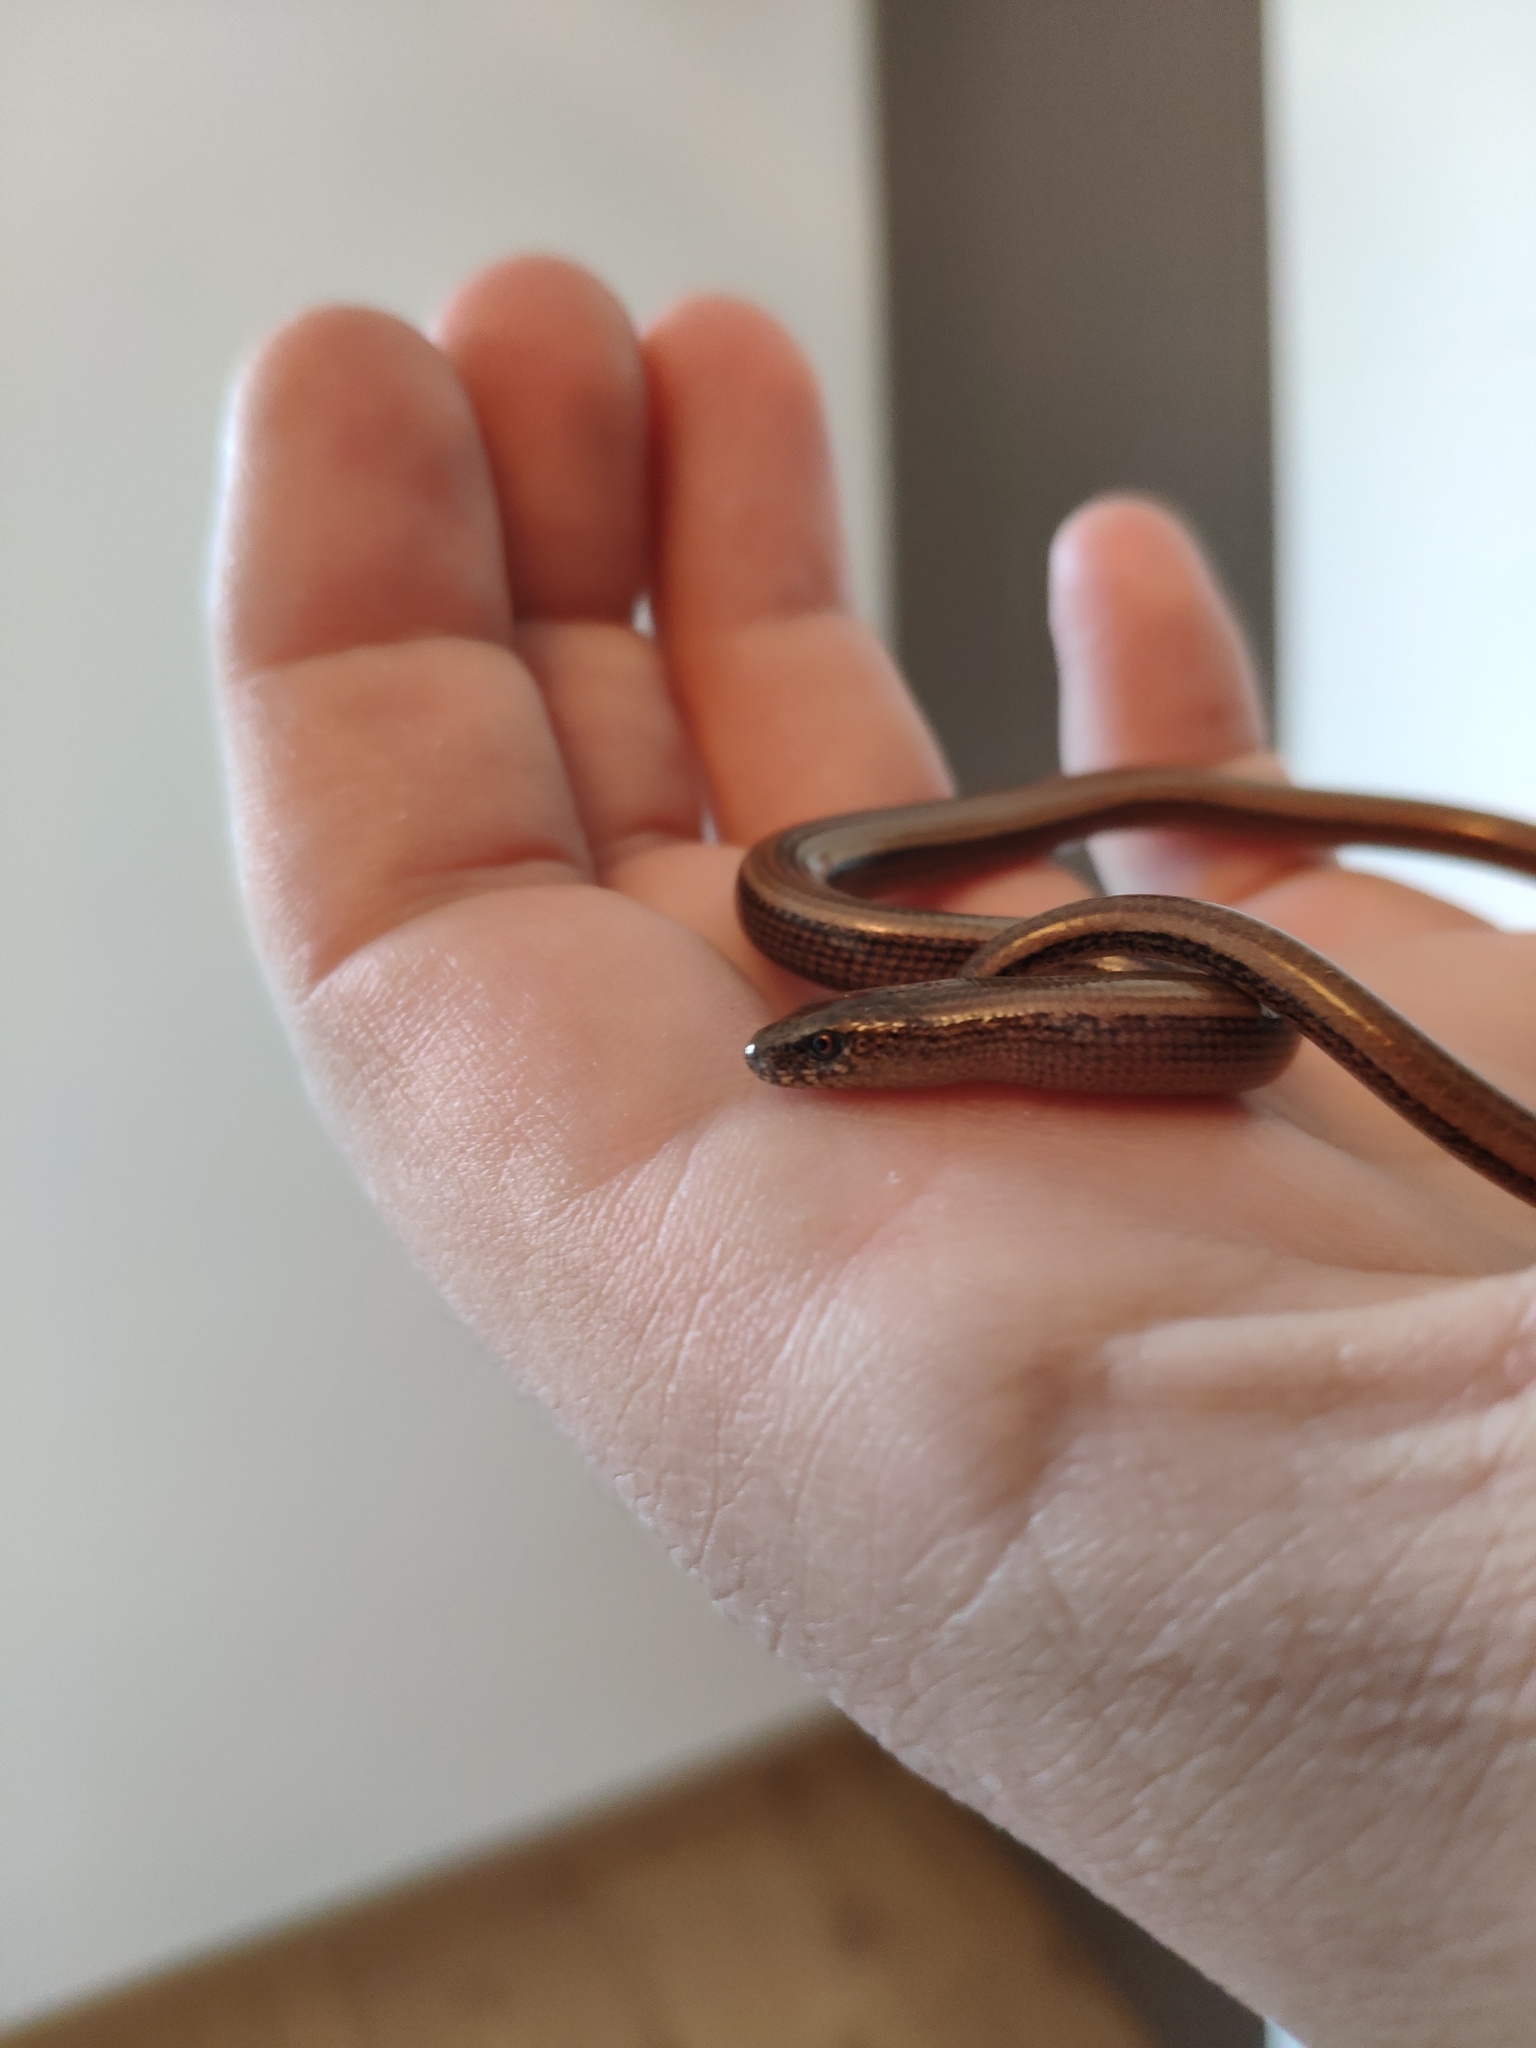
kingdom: Animalia
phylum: Chordata
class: Squamata
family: Anguidae
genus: Anguis
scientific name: Anguis veronensis
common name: Italian slow worm
